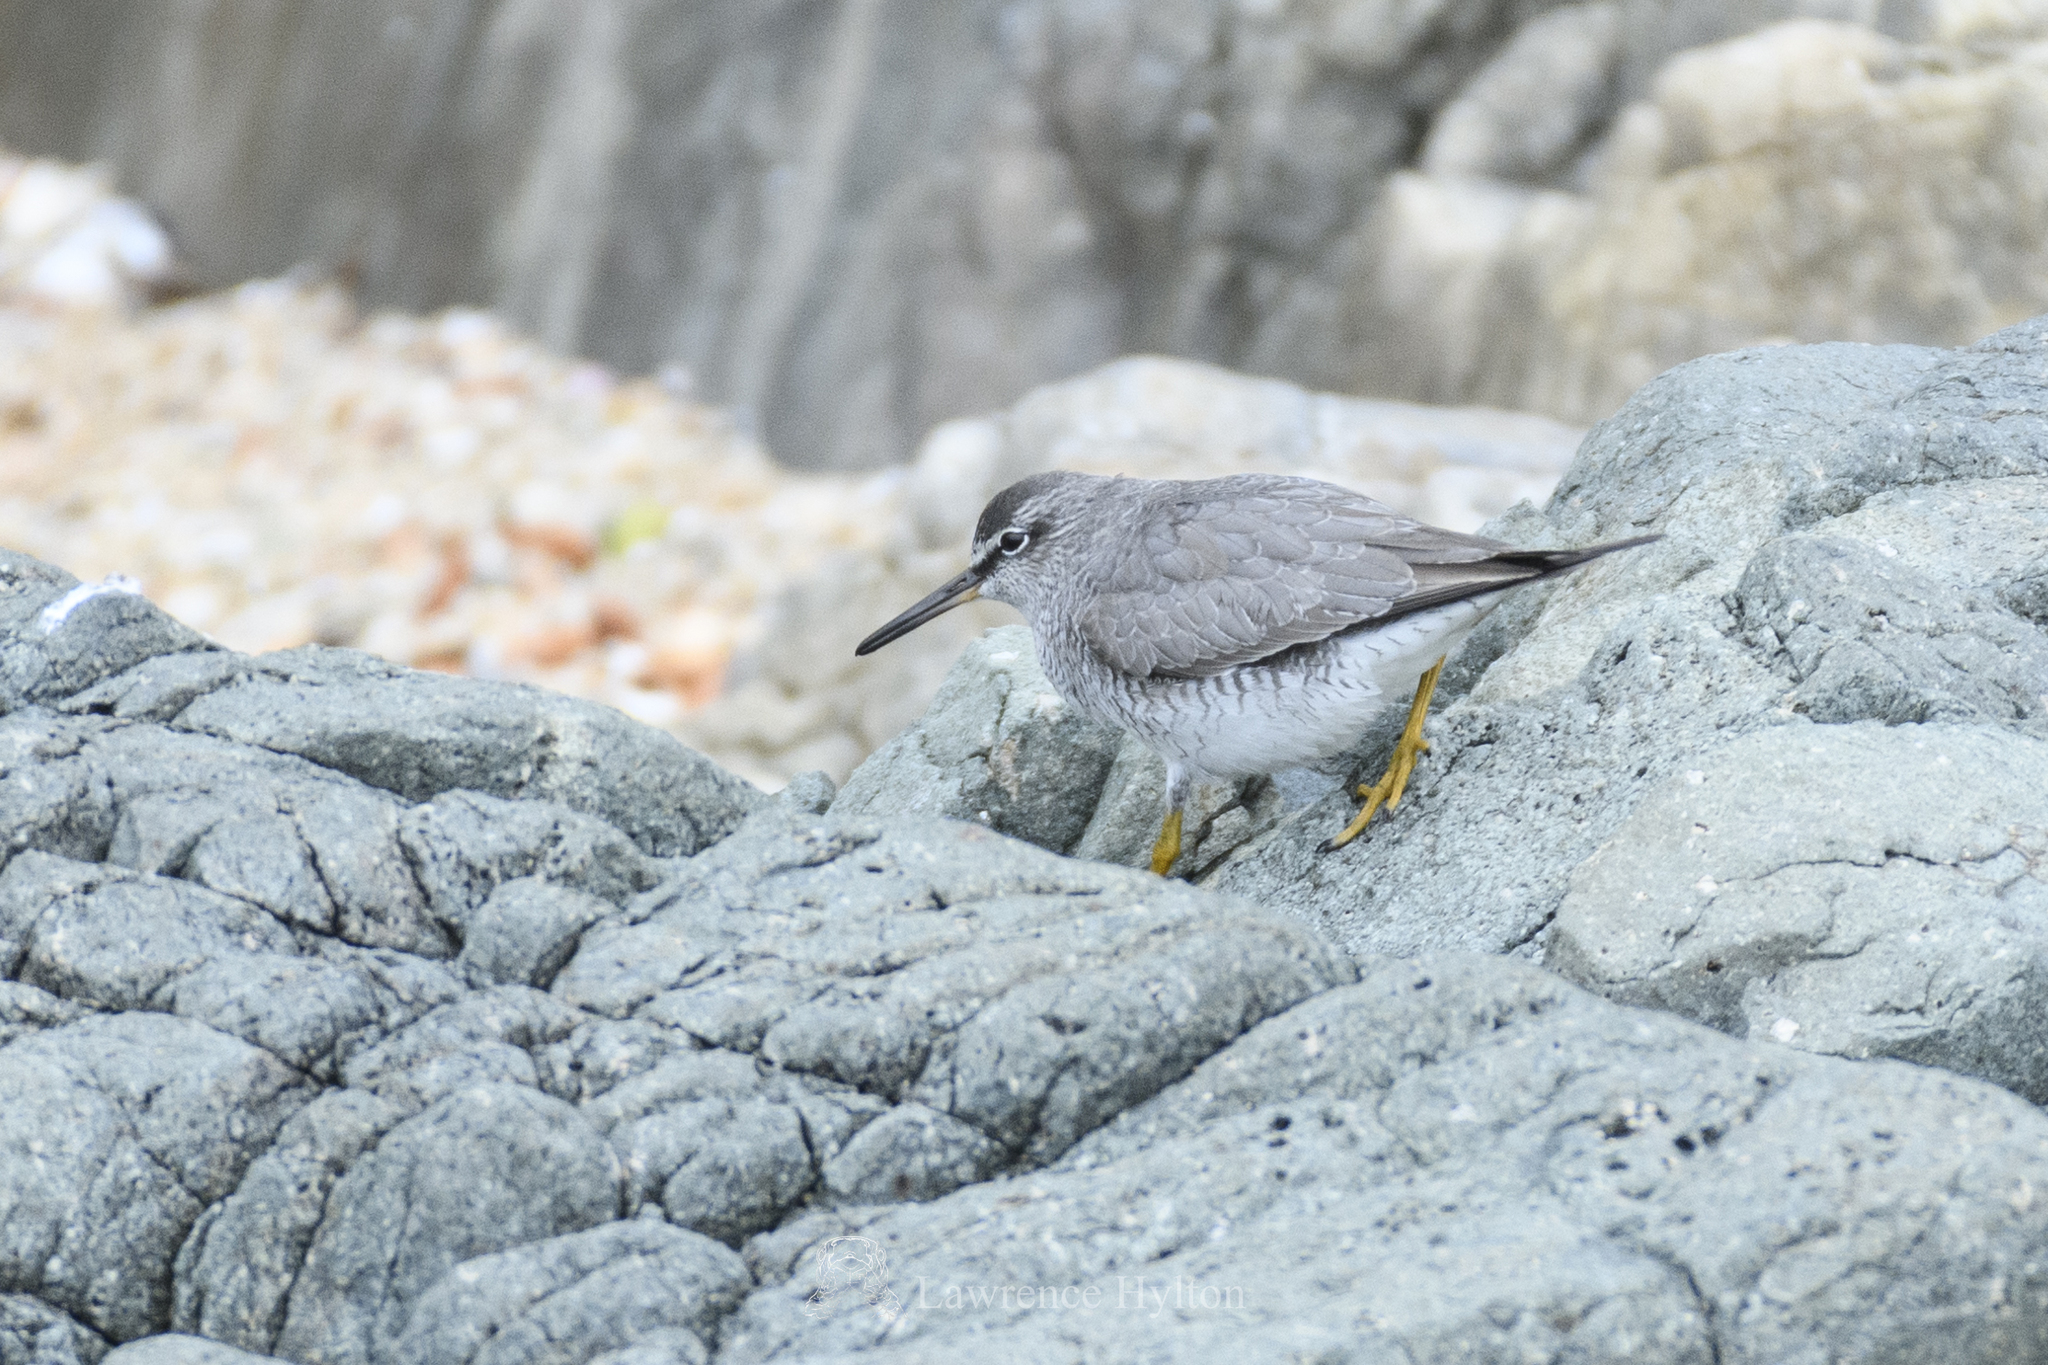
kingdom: Animalia
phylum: Chordata
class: Aves
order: Charadriiformes
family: Scolopacidae
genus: Tringa
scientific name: Tringa brevipes
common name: Grey-tailed tattler
